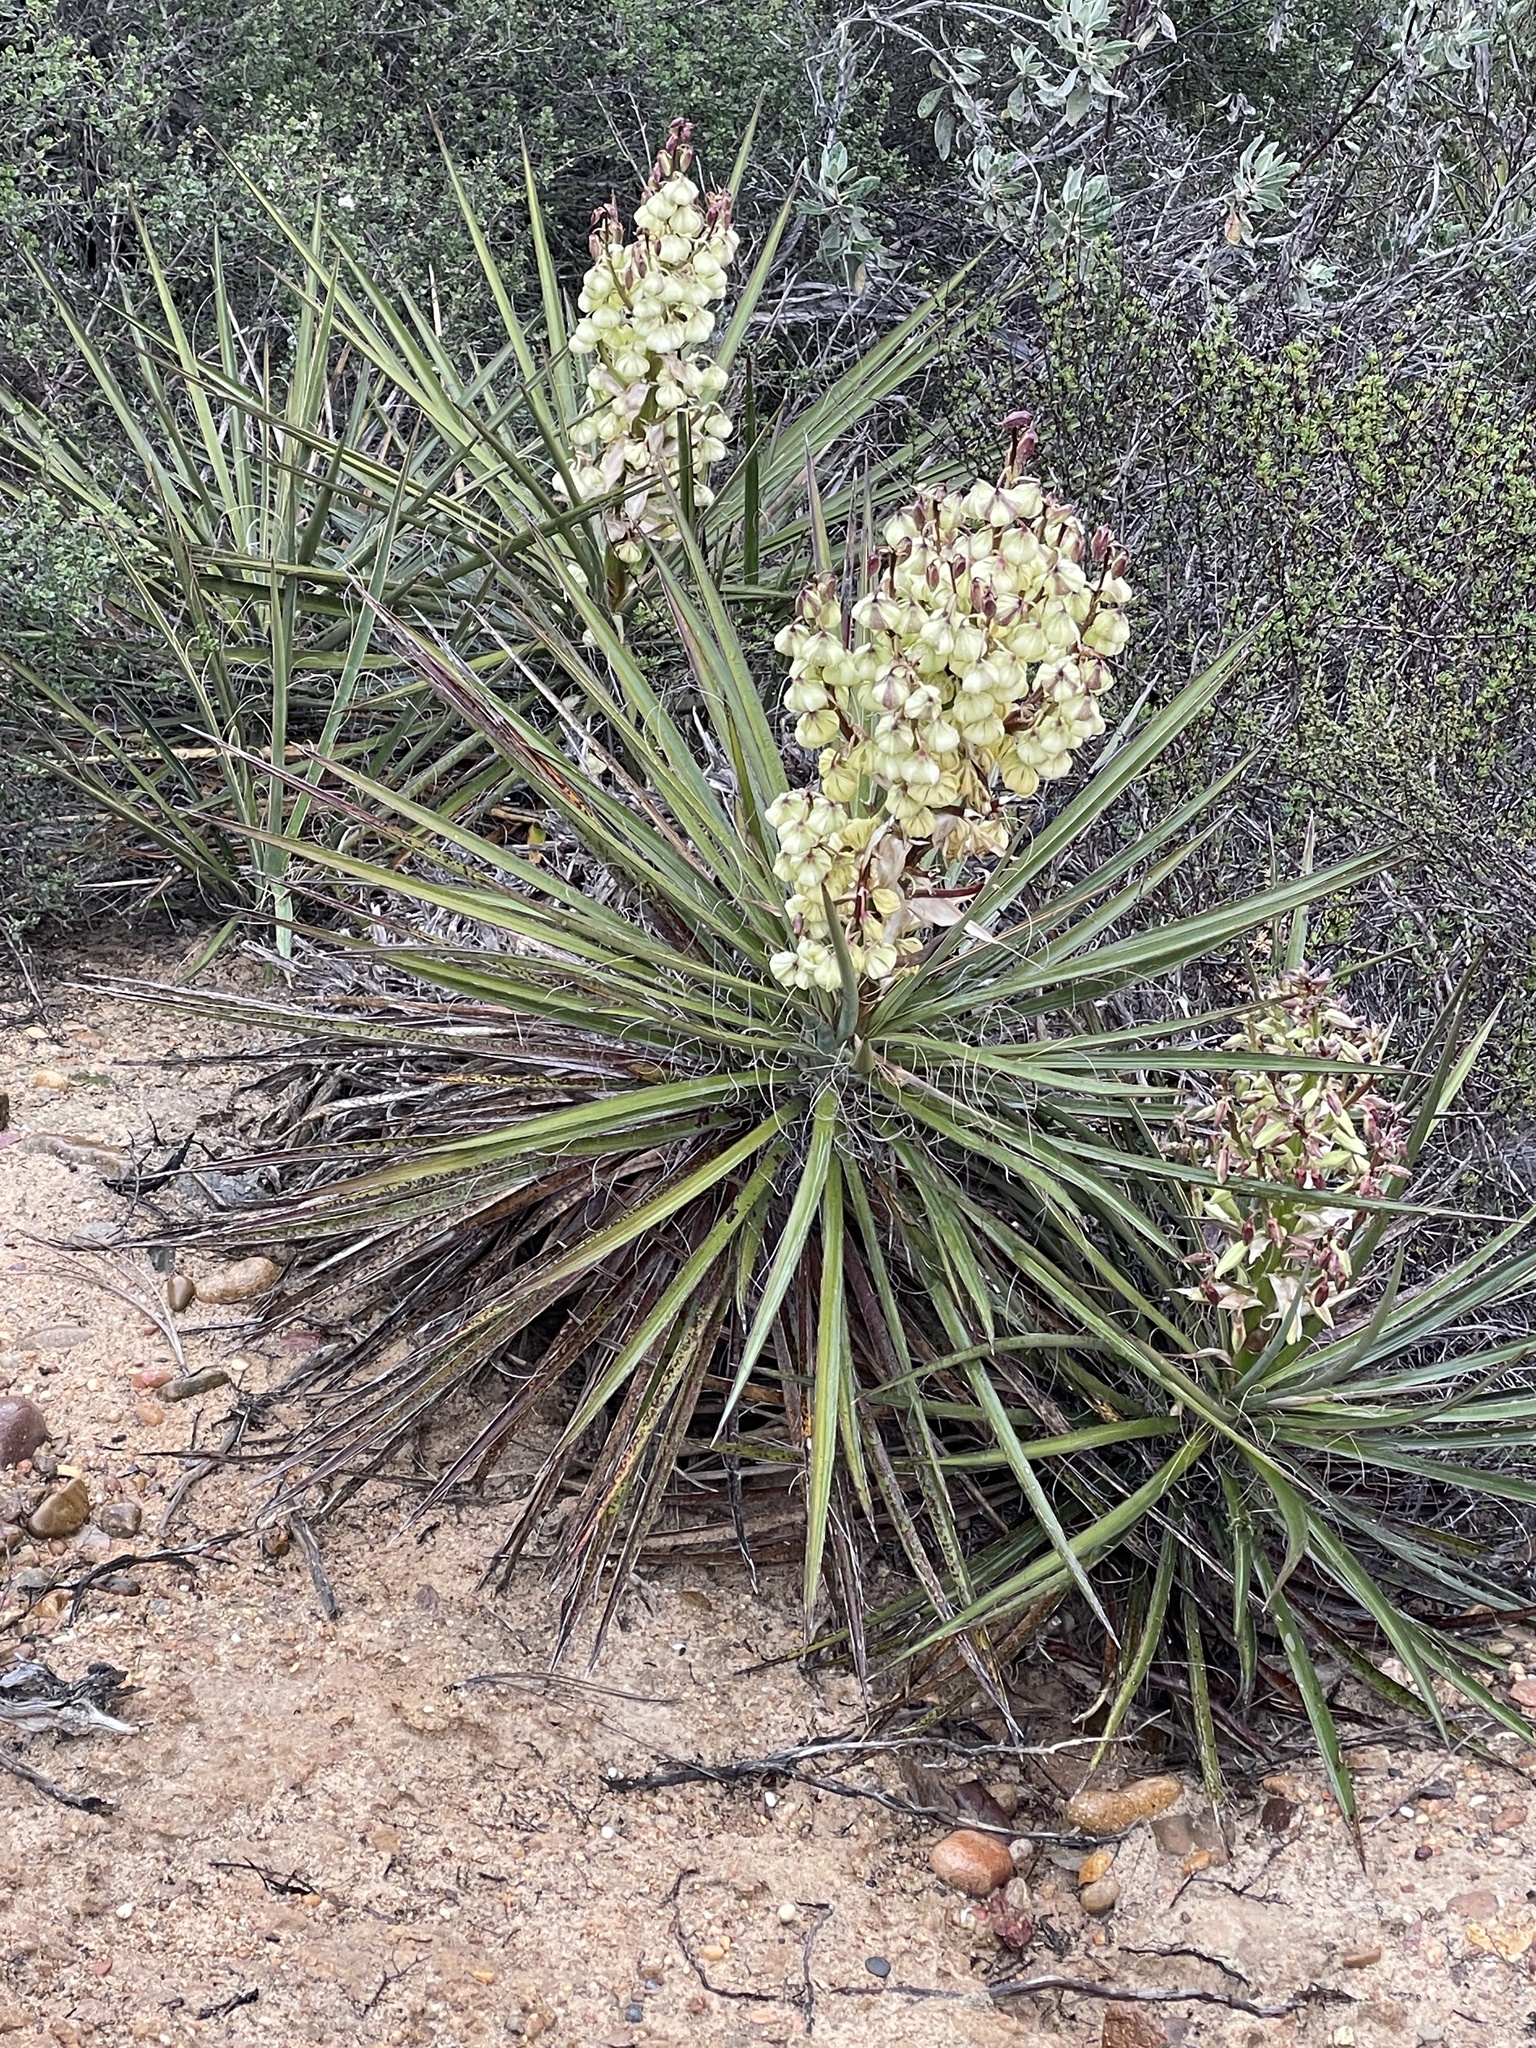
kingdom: Plantae
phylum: Tracheophyta
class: Liliopsida
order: Asparagales
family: Asparagaceae
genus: Yucca
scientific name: Yucca schidigera
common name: Mojave yucca
